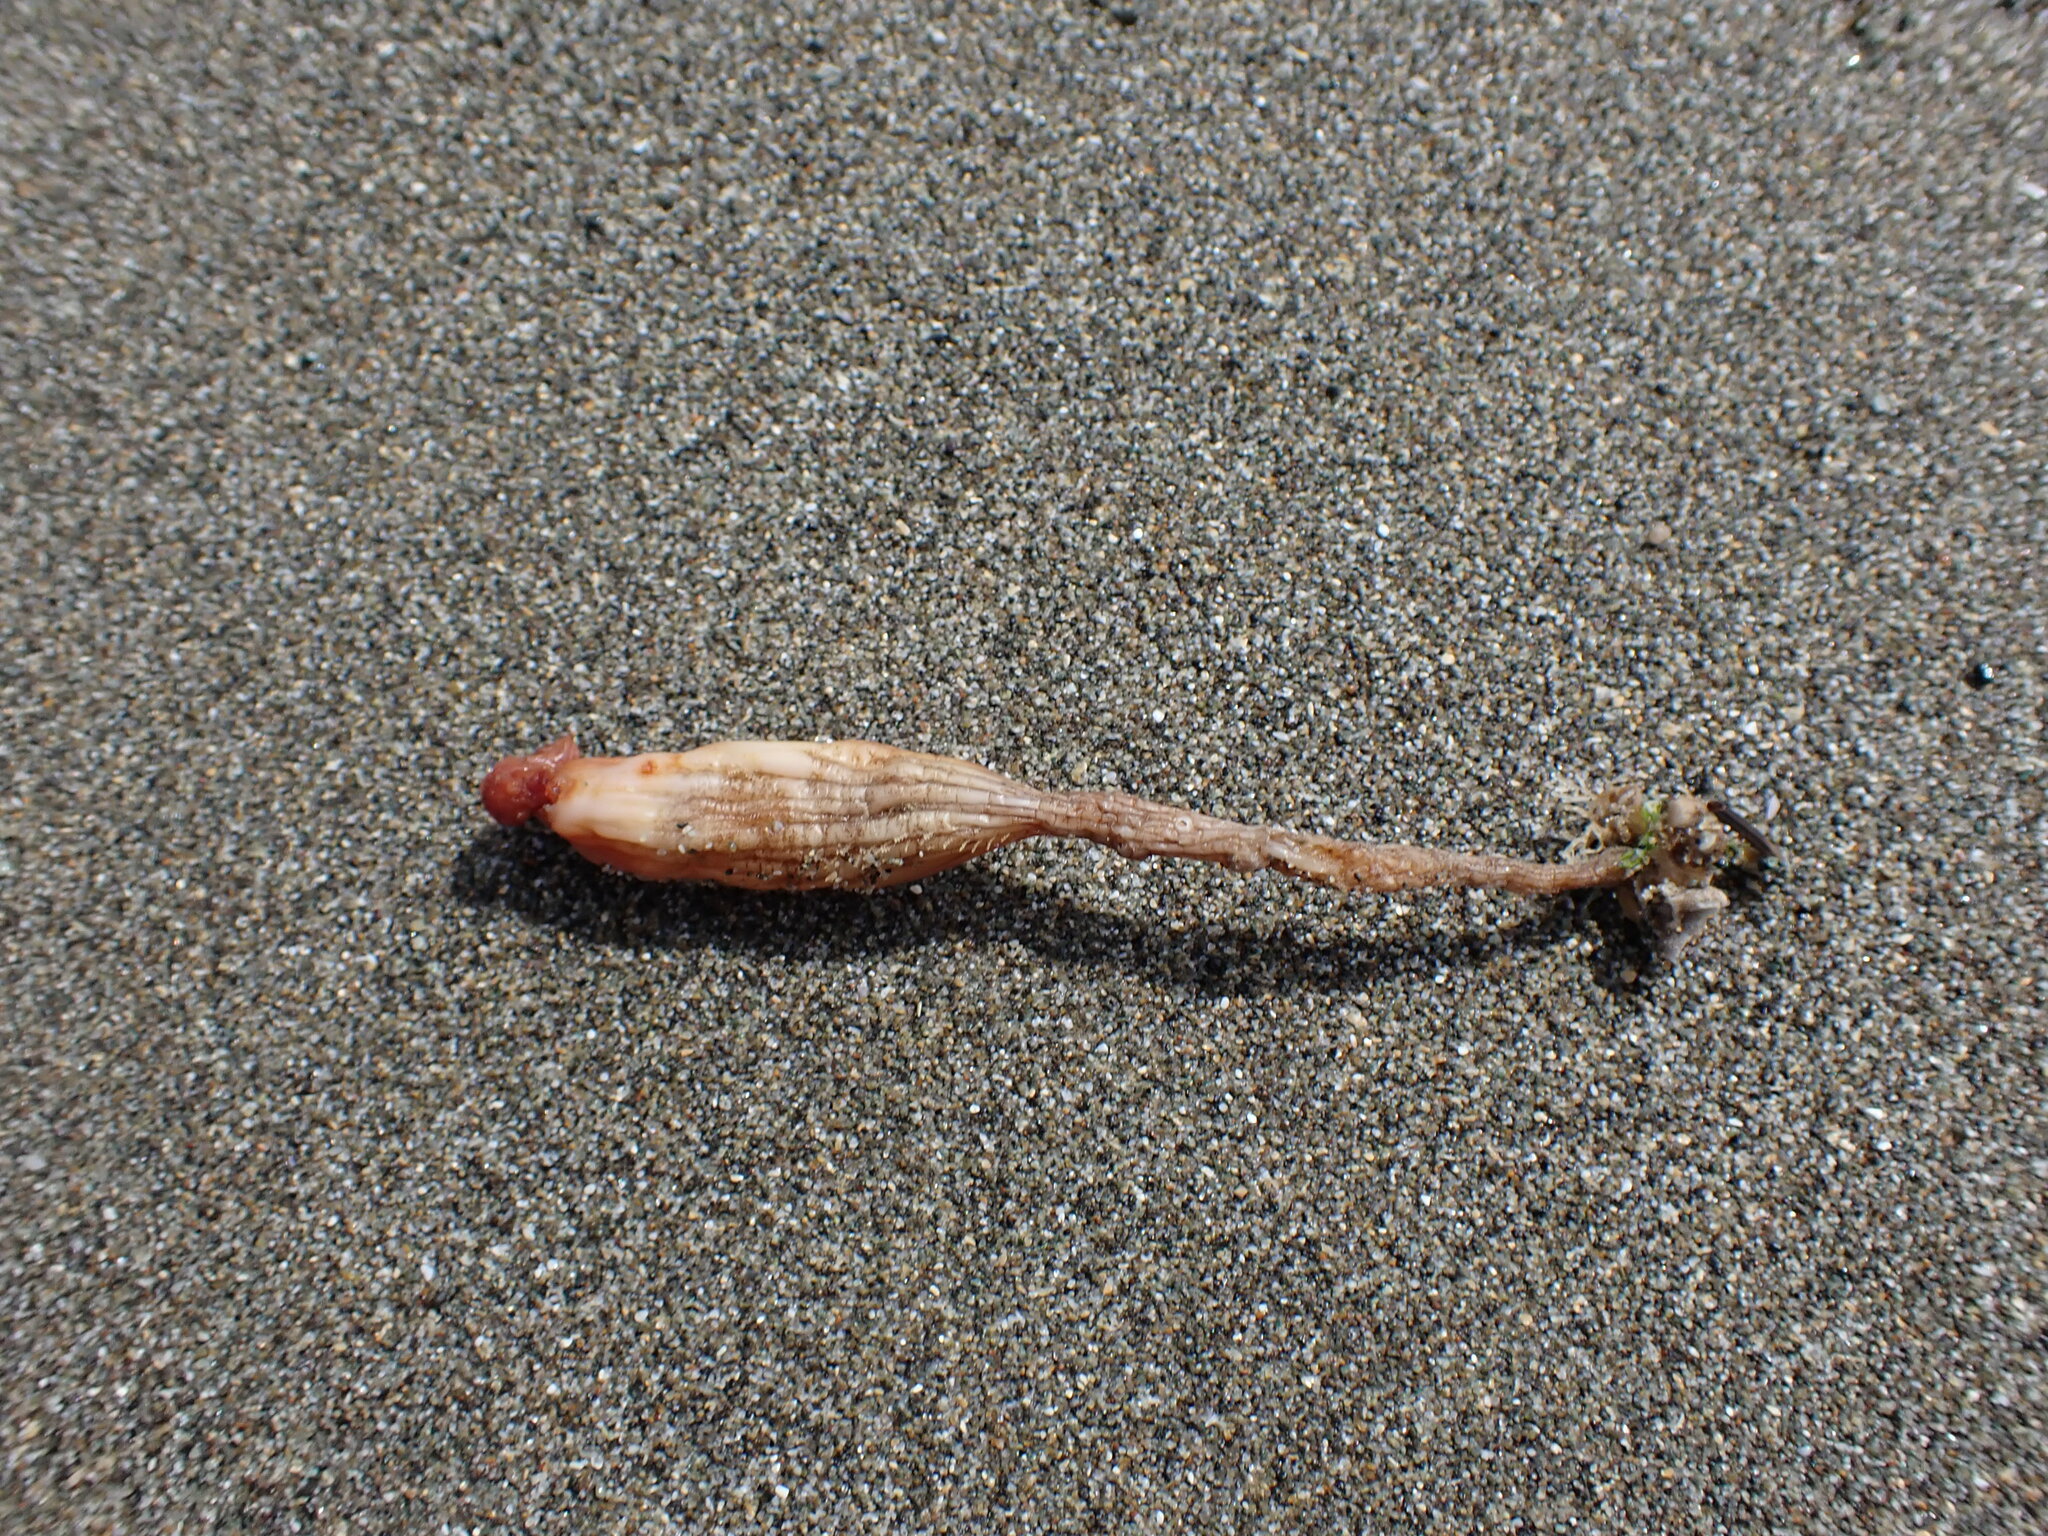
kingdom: Animalia
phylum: Chordata
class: Ascidiacea
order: Stolidobranchia
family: Styelidae
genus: Styela
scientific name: Styela montereyensis
